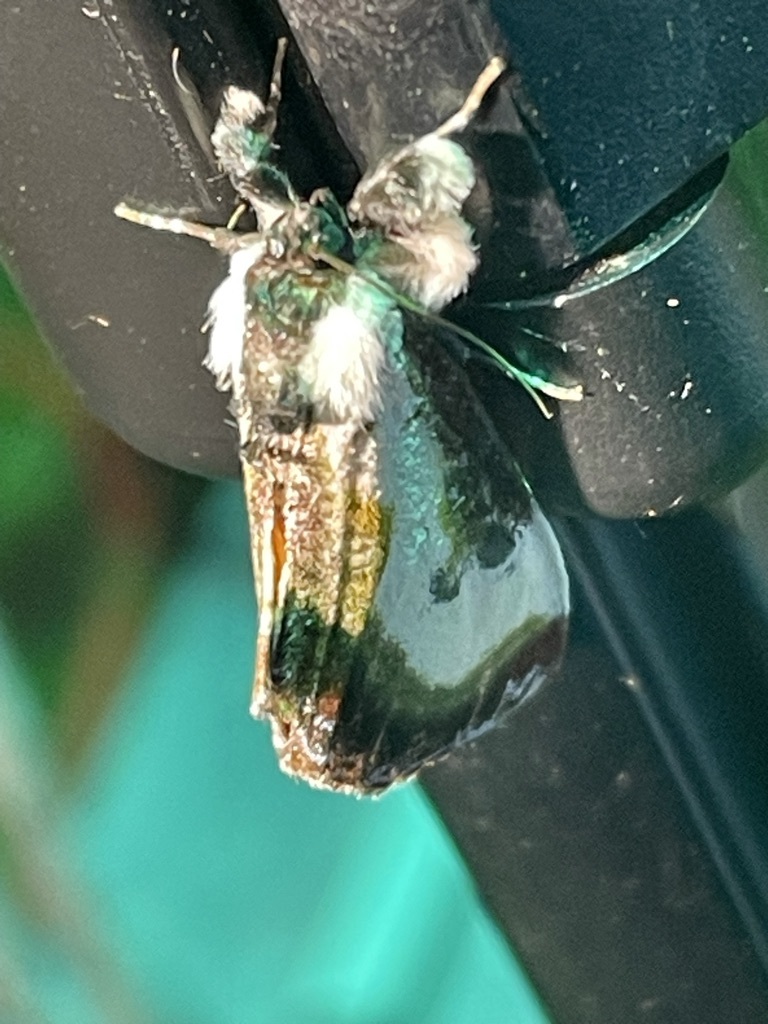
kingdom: Animalia
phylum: Arthropoda
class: Insecta
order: Lepidoptera
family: Noctuidae
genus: Eudryas
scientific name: Eudryas grata
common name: Beautiful wood-nymph
